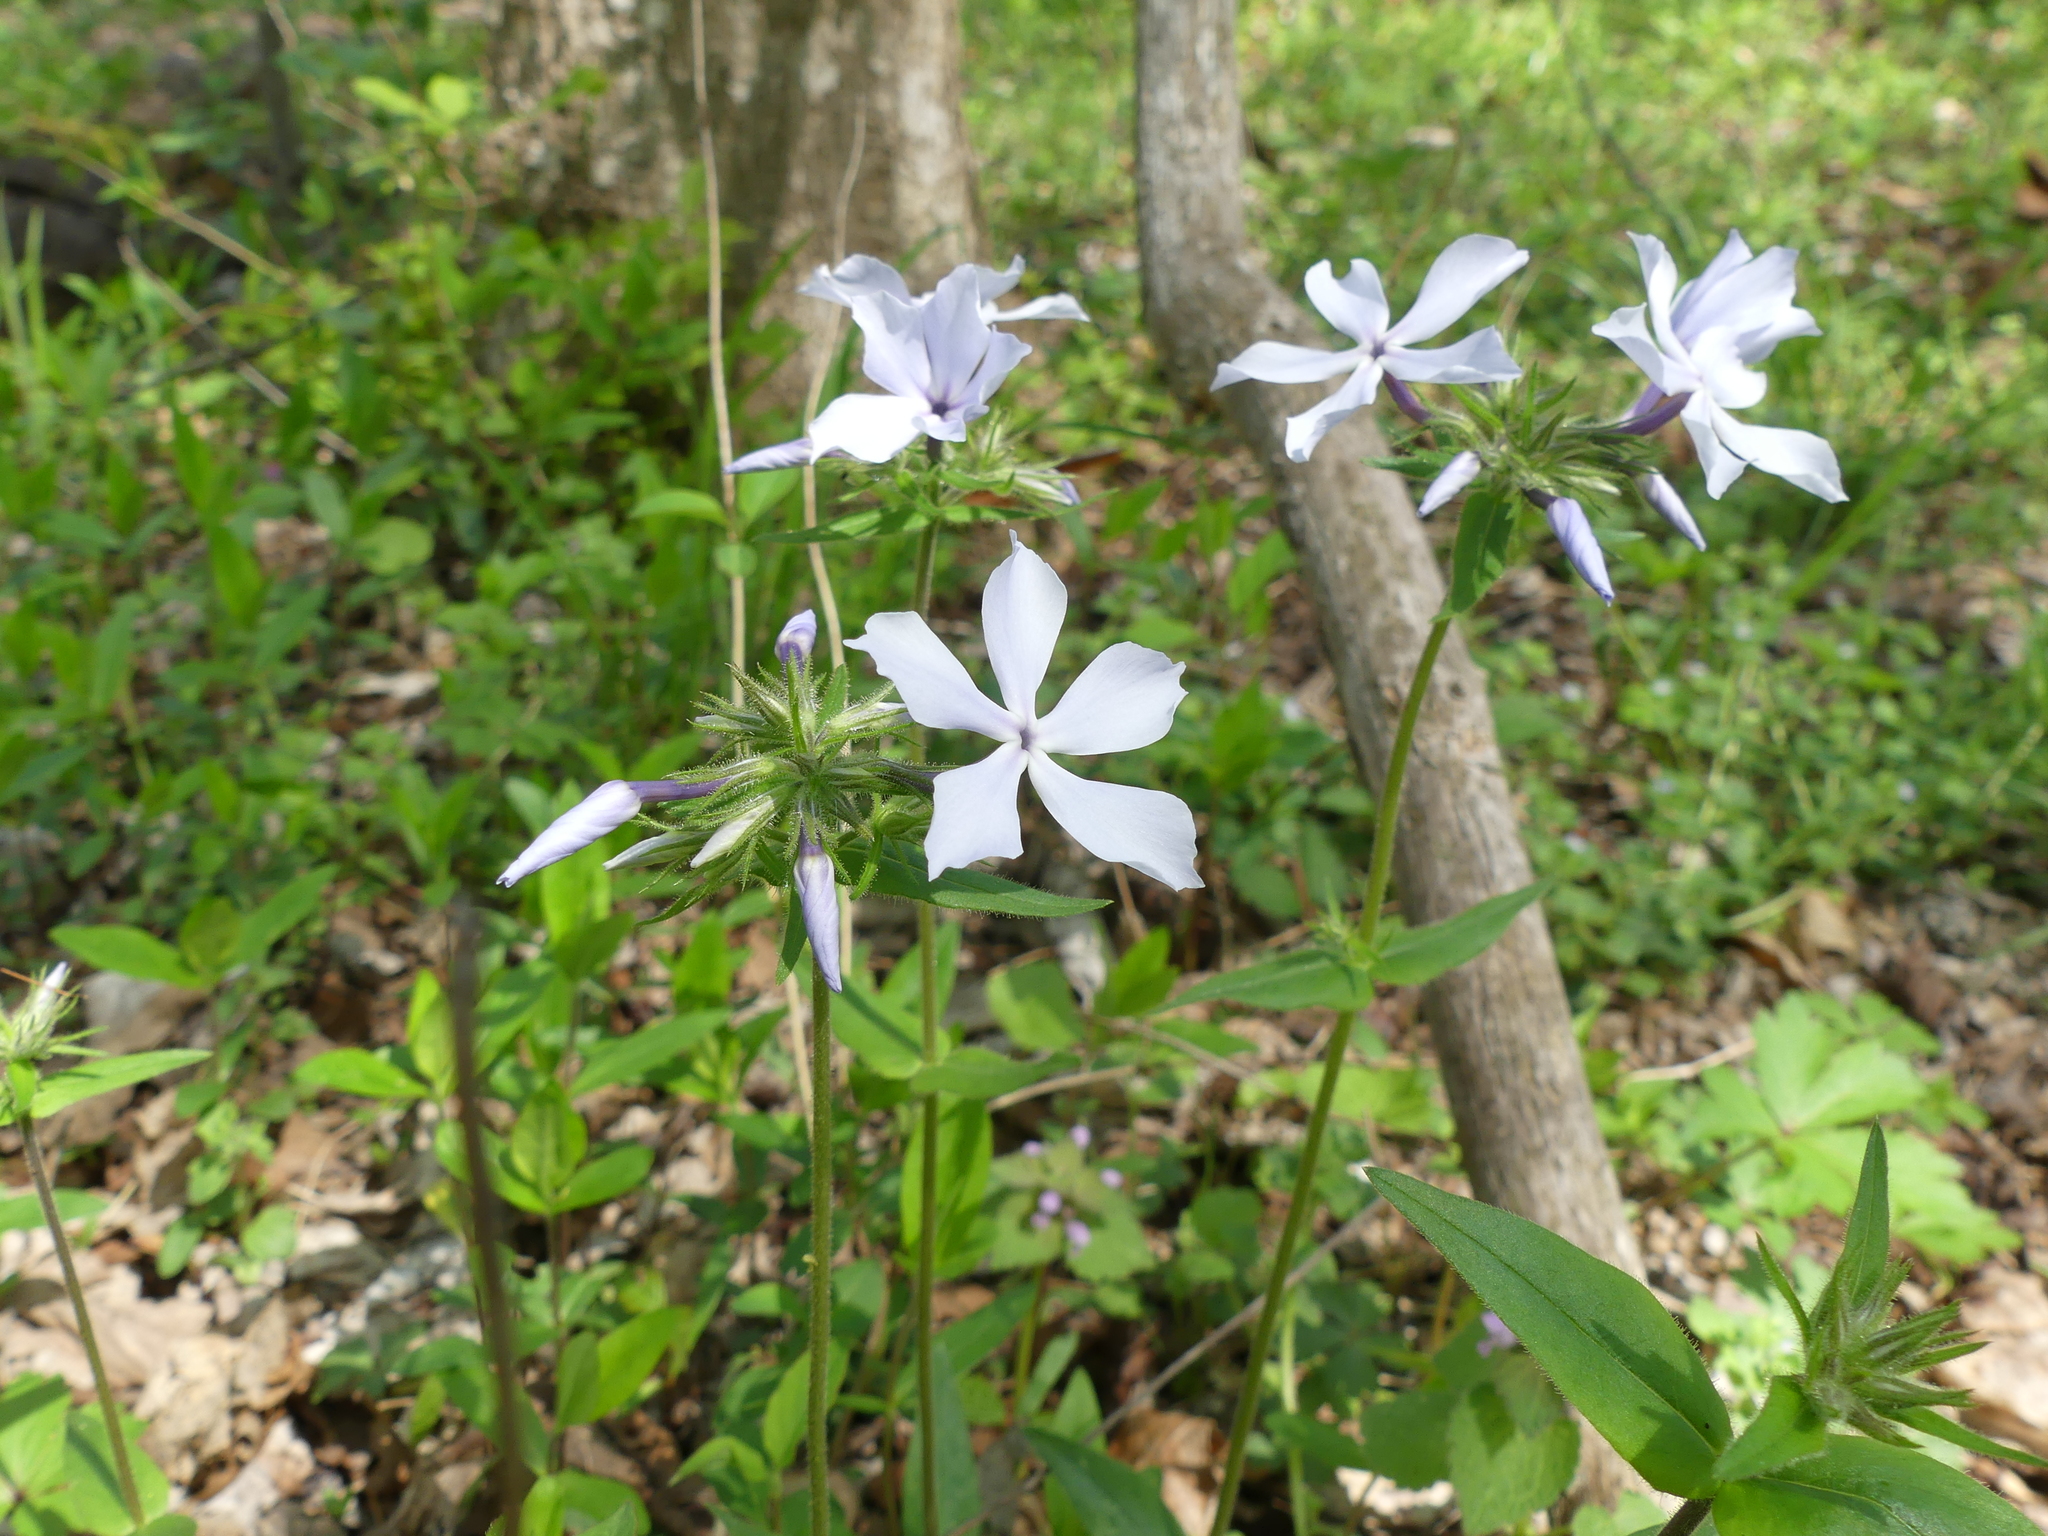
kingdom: Plantae
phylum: Tracheophyta
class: Magnoliopsida
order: Ericales
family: Polemoniaceae
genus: Phlox
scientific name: Phlox divaricata
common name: Blue phlox
